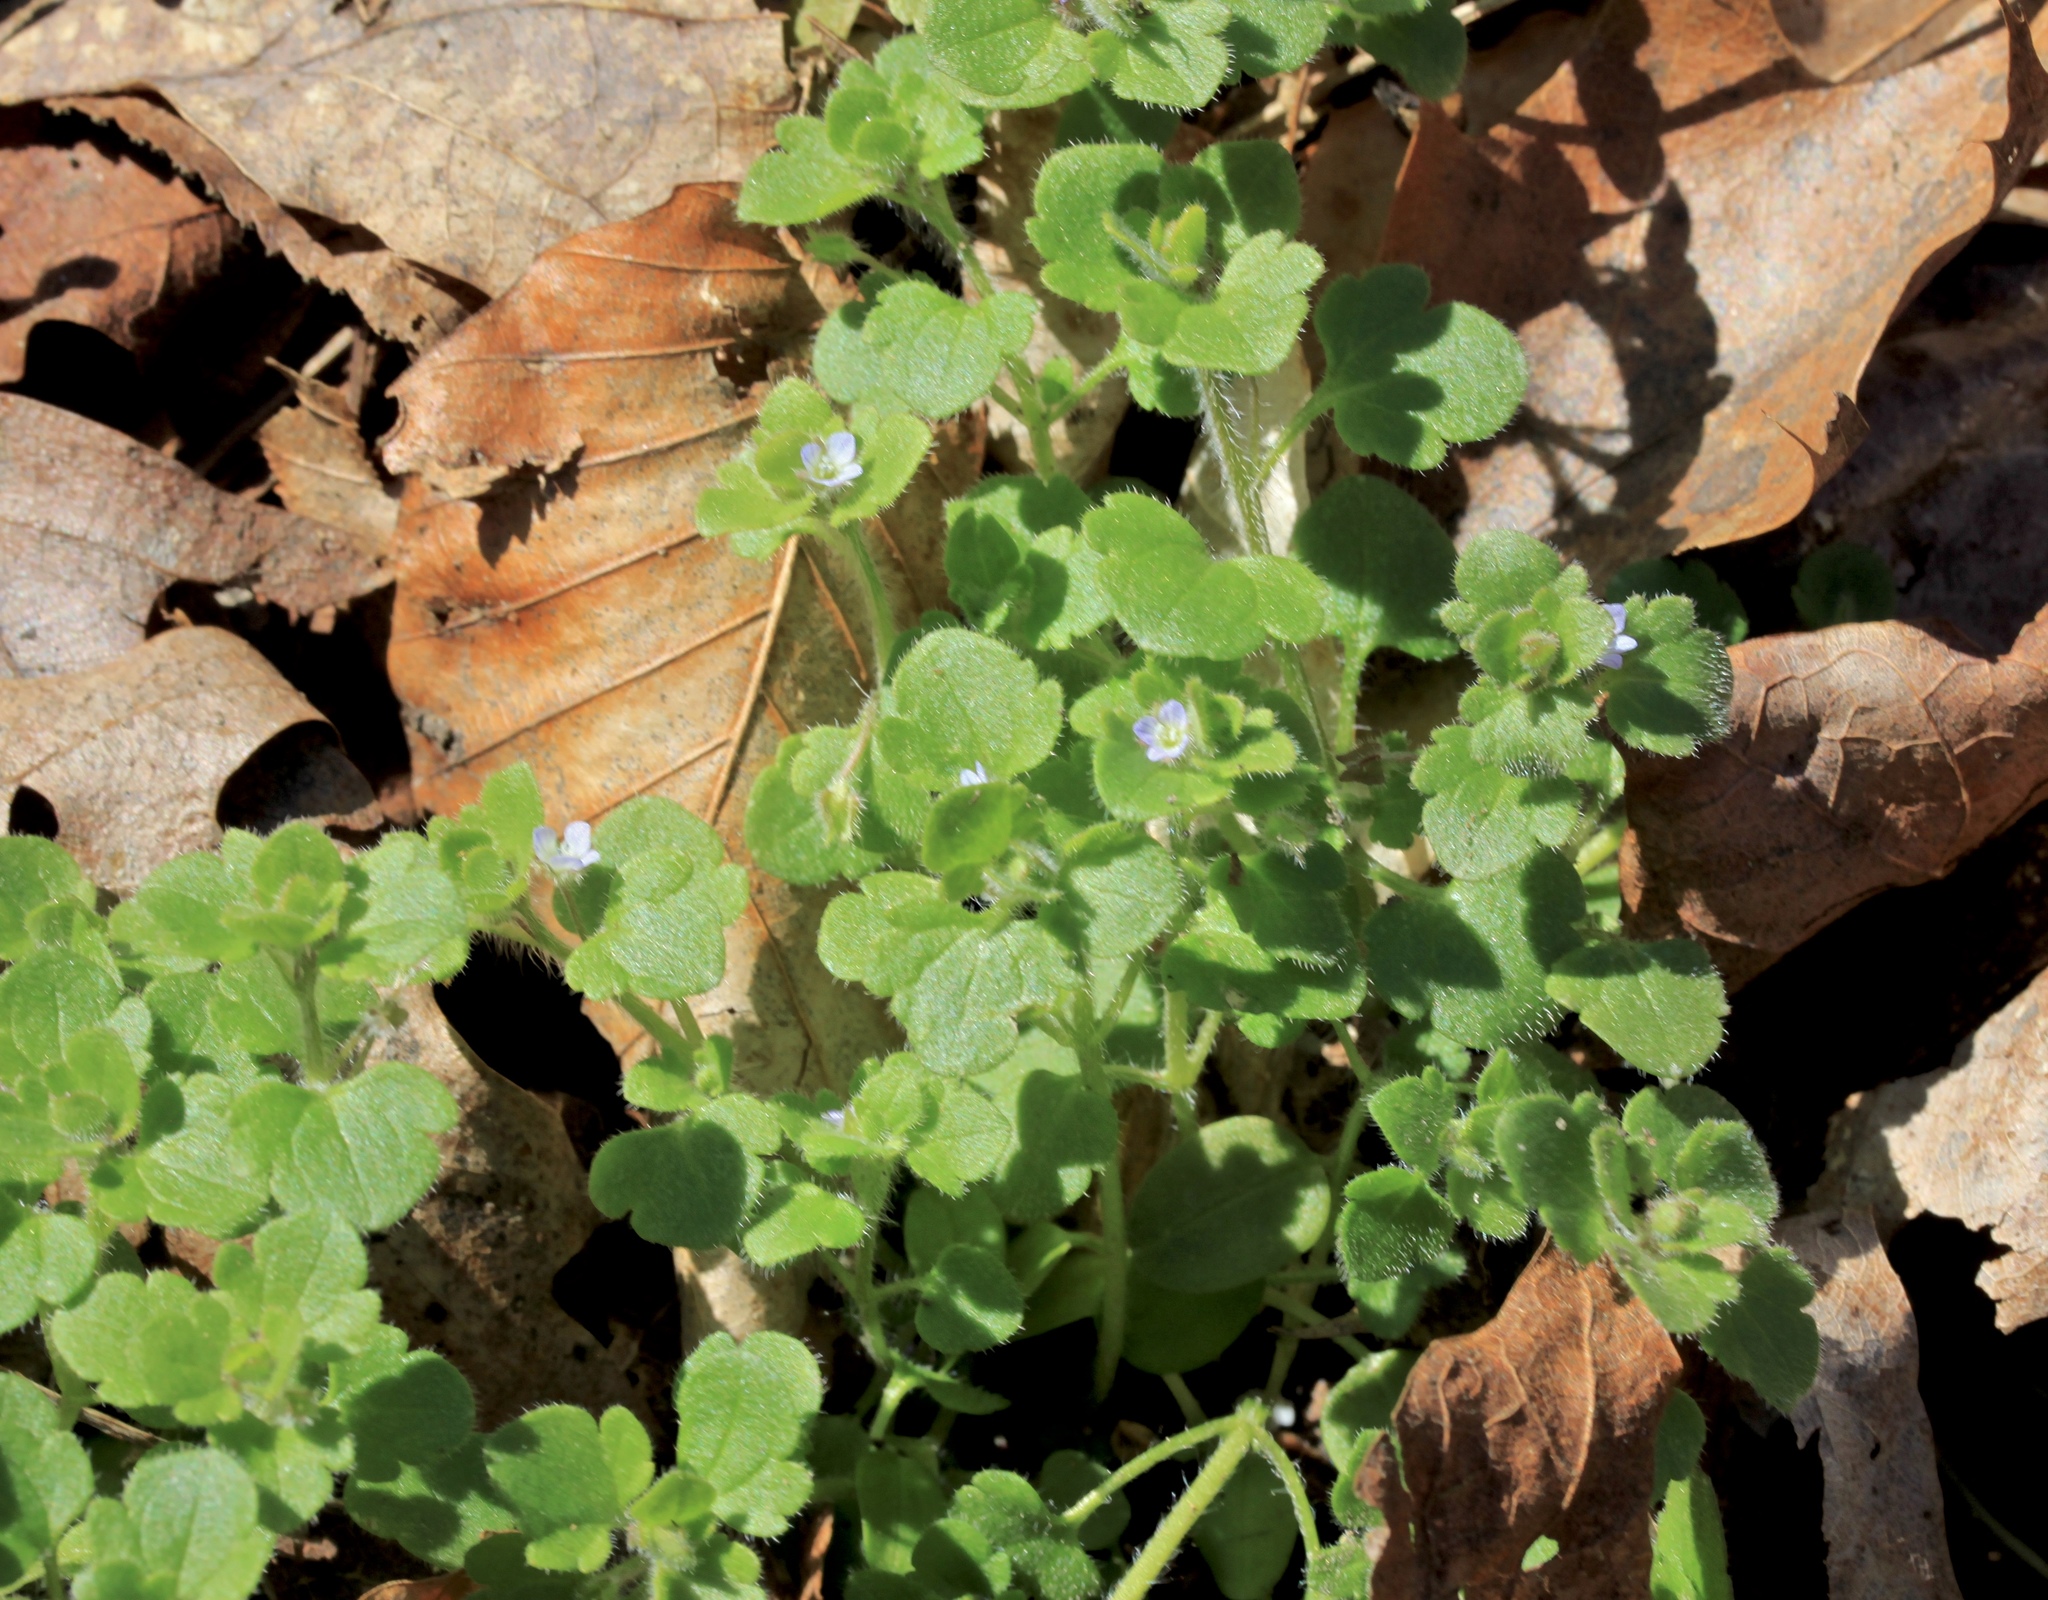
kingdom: Plantae
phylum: Tracheophyta
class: Magnoliopsida
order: Lamiales
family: Plantaginaceae
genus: Veronica
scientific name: Veronica hederifolia
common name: Ivy-leaved speedwell
